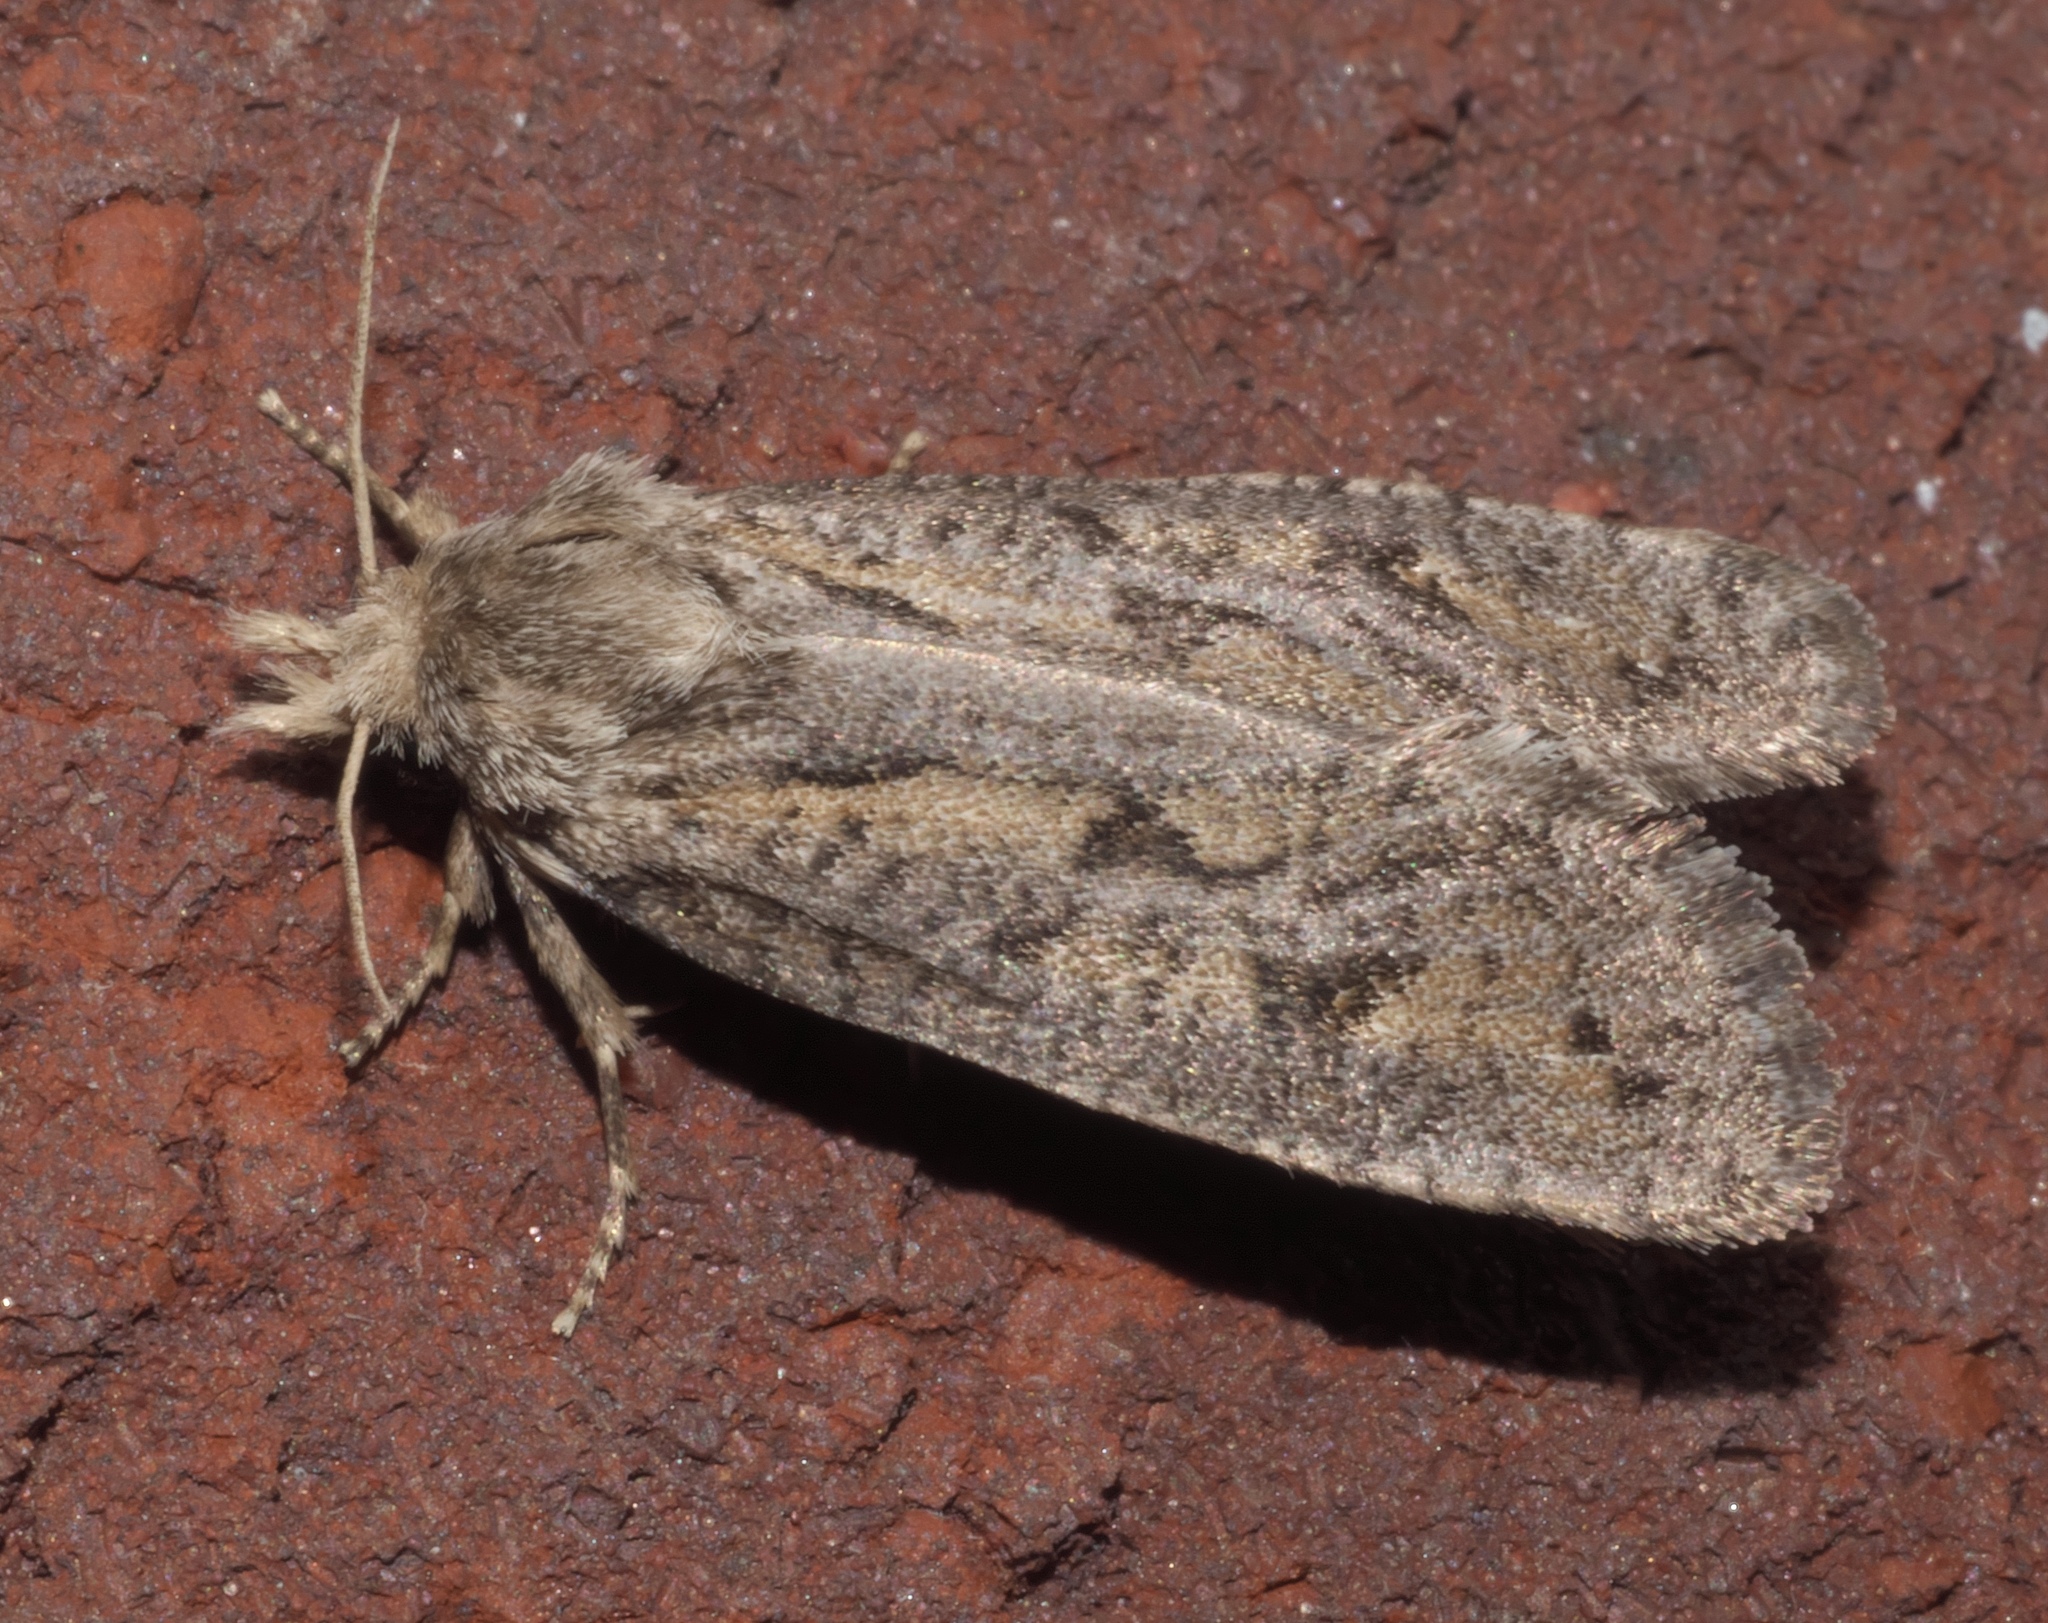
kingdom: Animalia
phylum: Arthropoda
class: Insecta
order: Lepidoptera
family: Tineidae
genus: Acrolophus
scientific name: Acrolophus popeanella
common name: Clemens' grass tubeworm moth
